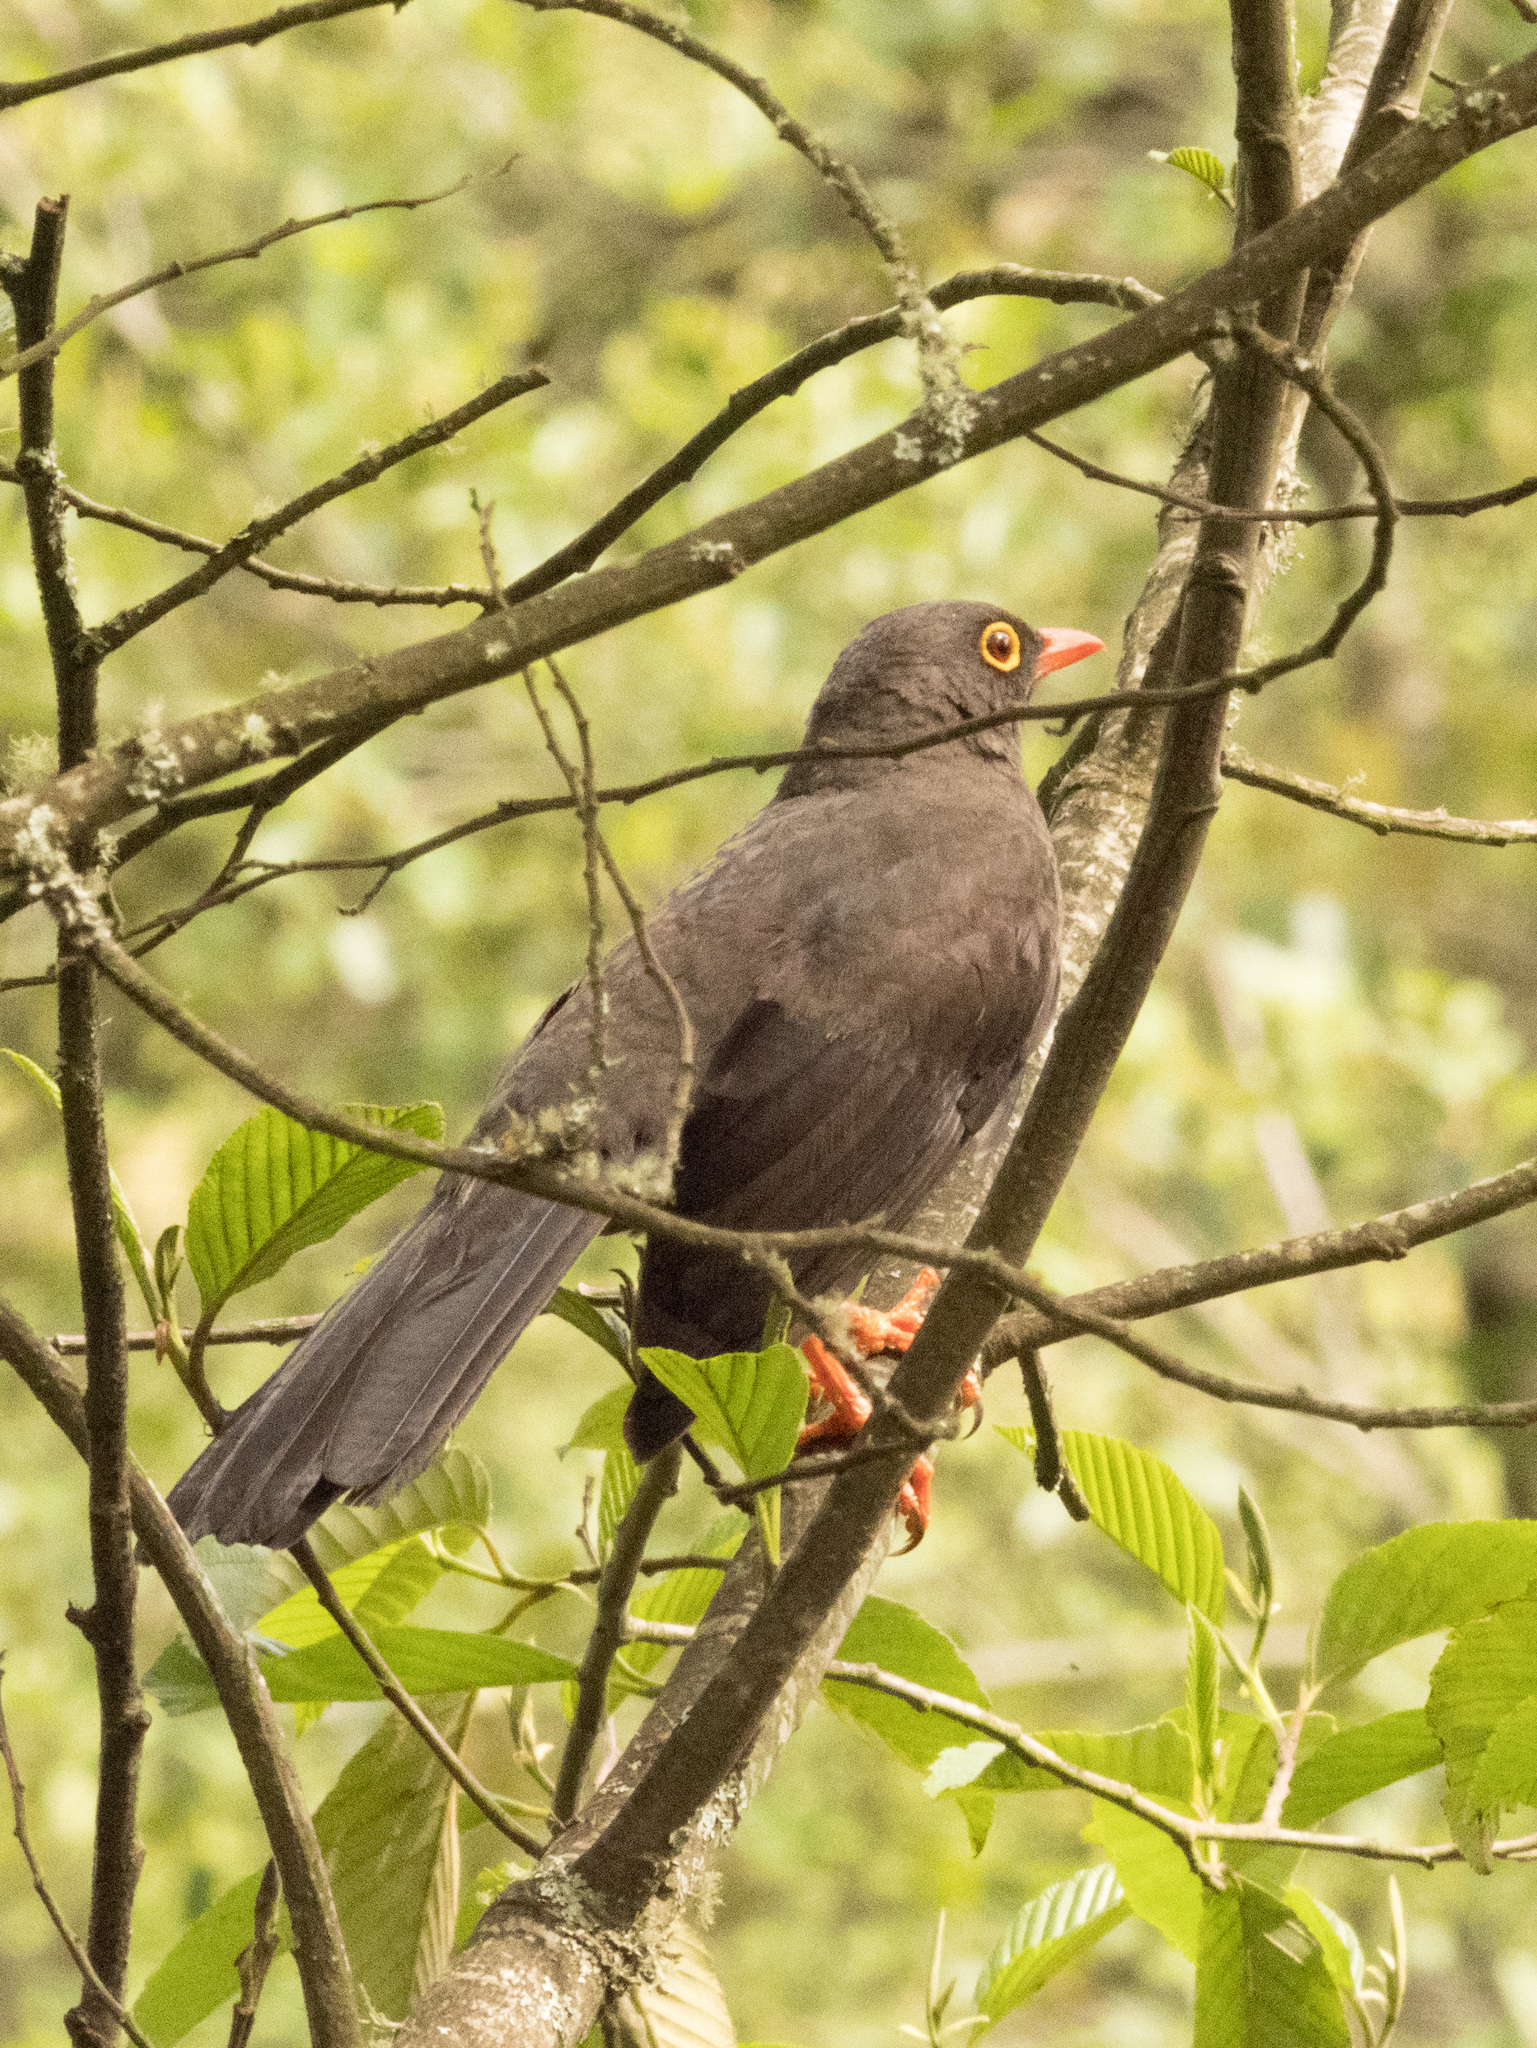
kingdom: Animalia
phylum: Chordata
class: Aves
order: Passeriformes
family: Turdidae
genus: Turdus
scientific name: Turdus fuscater
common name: Great thrush
